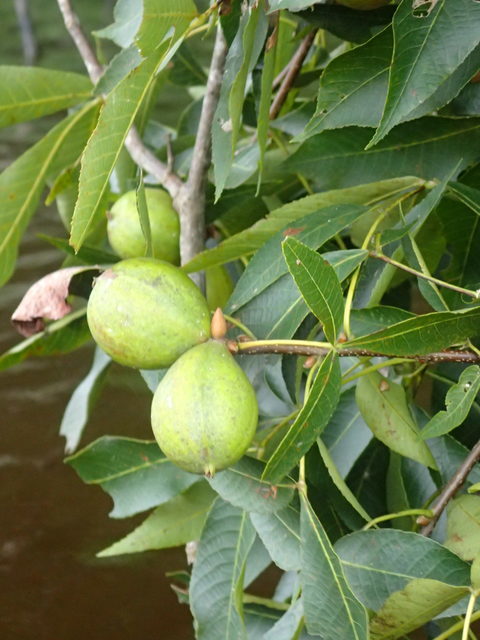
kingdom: Plantae
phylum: Tracheophyta
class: Magnoliopsida
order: Fagales
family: Juglandaceae
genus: Carya
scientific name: Carya glabra
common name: Pignut hickory
